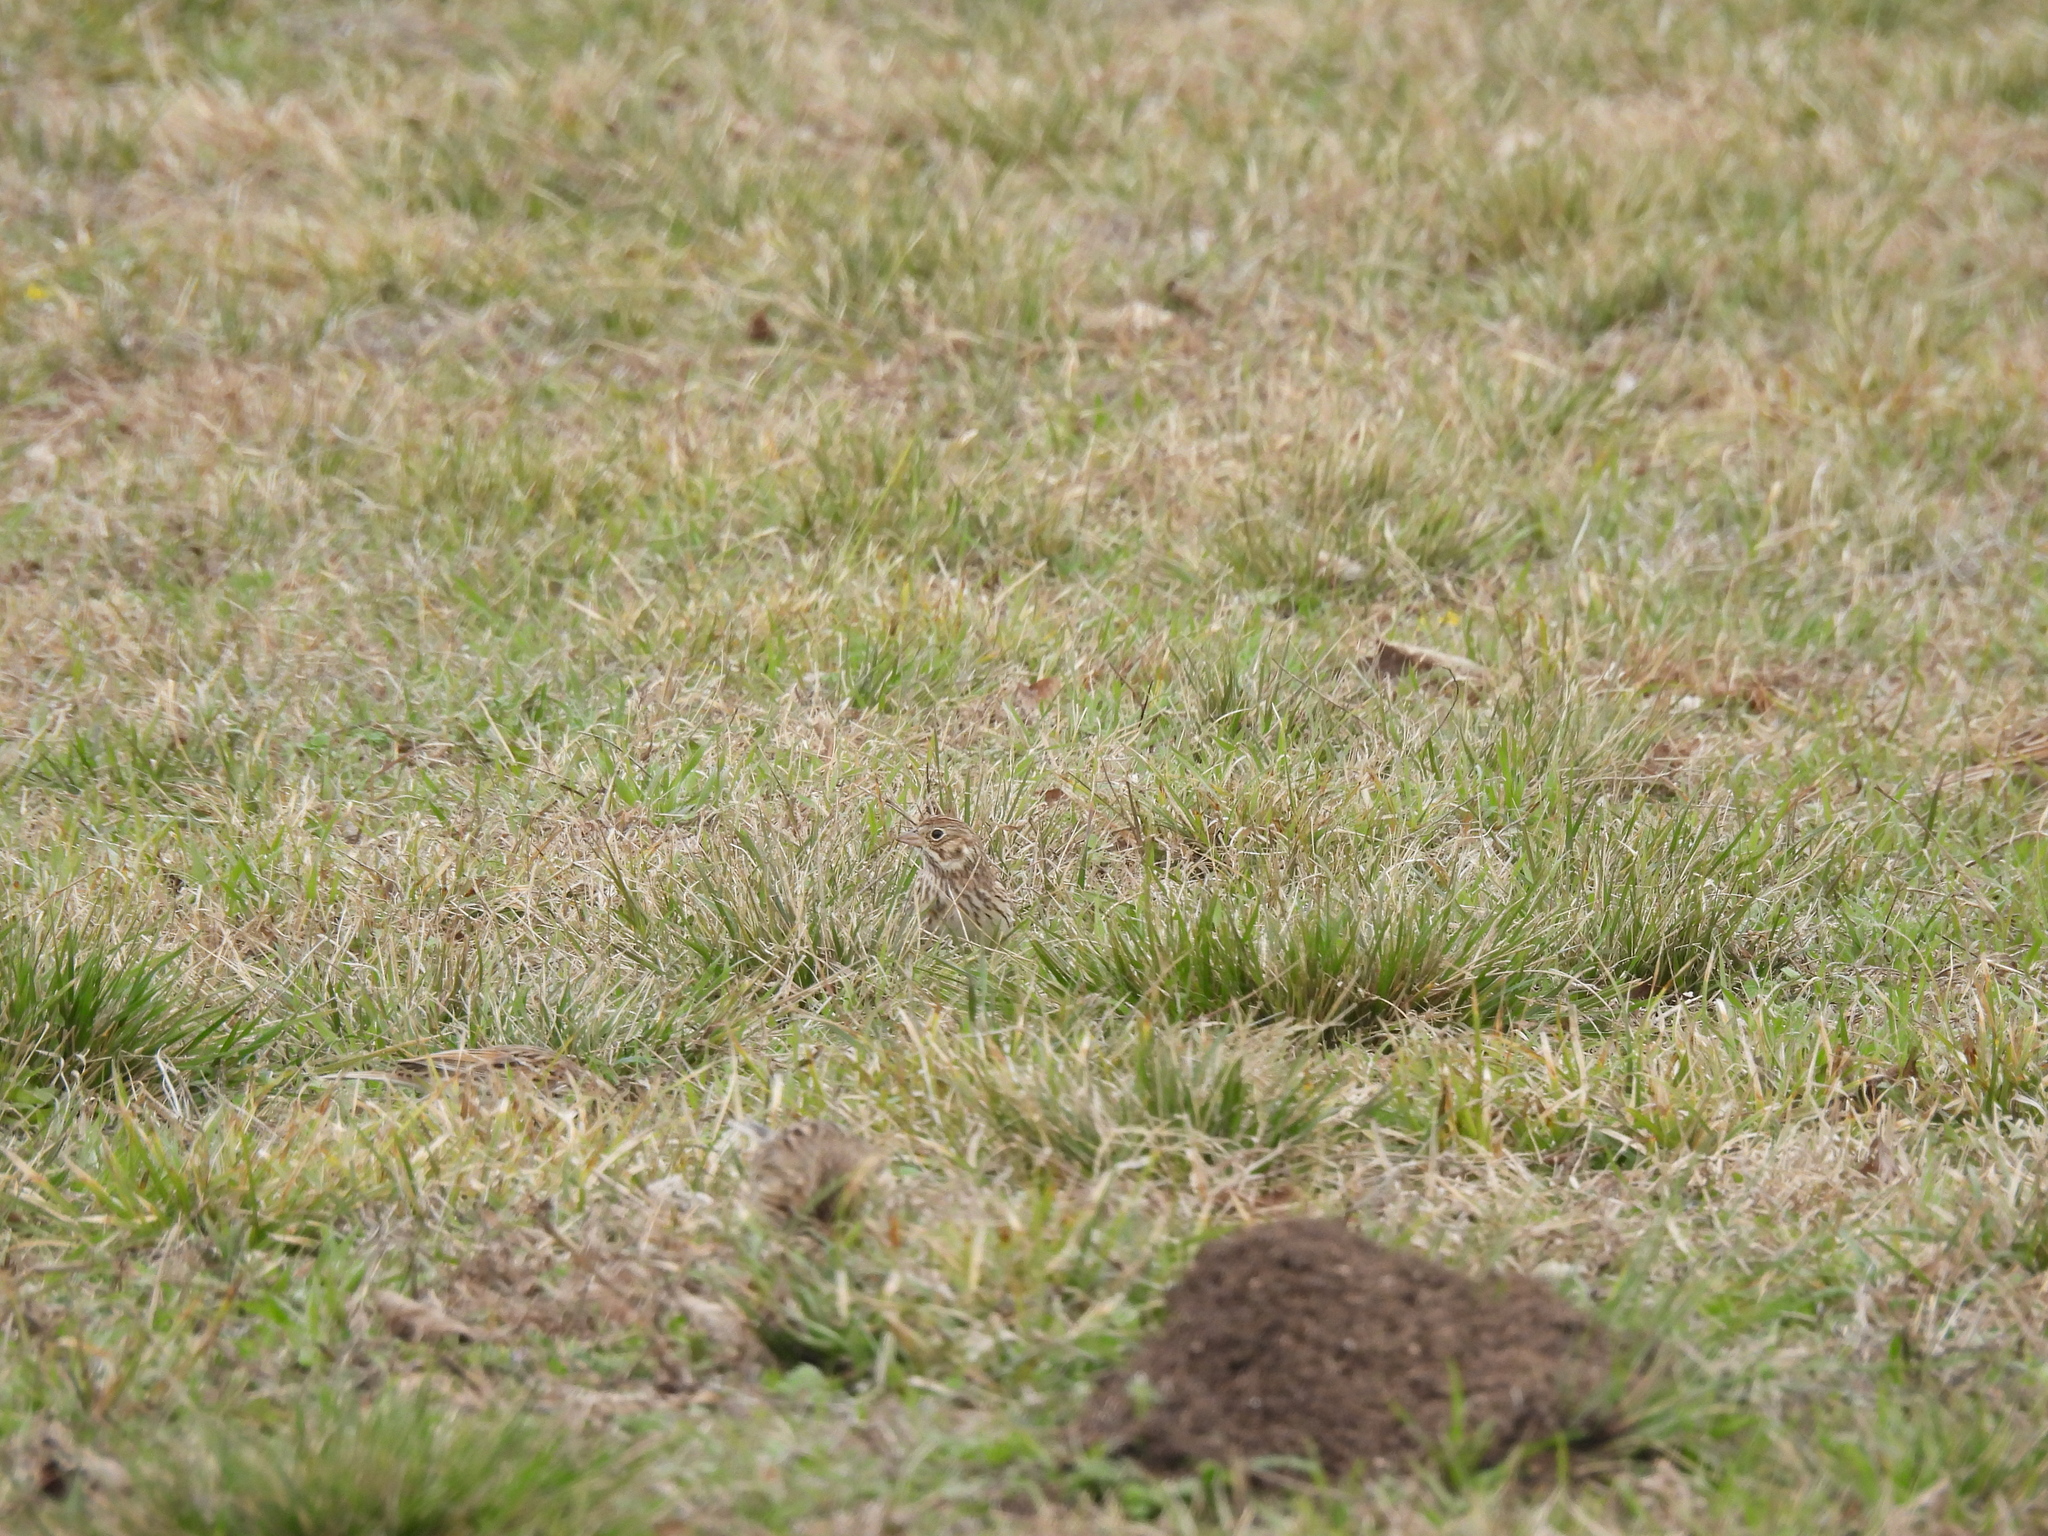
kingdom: Animalia
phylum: Chordata
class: Aves
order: Passeriformes
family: Passerellidae
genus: Pooecetes
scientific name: Pooecetes gramineus
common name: Vesper sparrow
